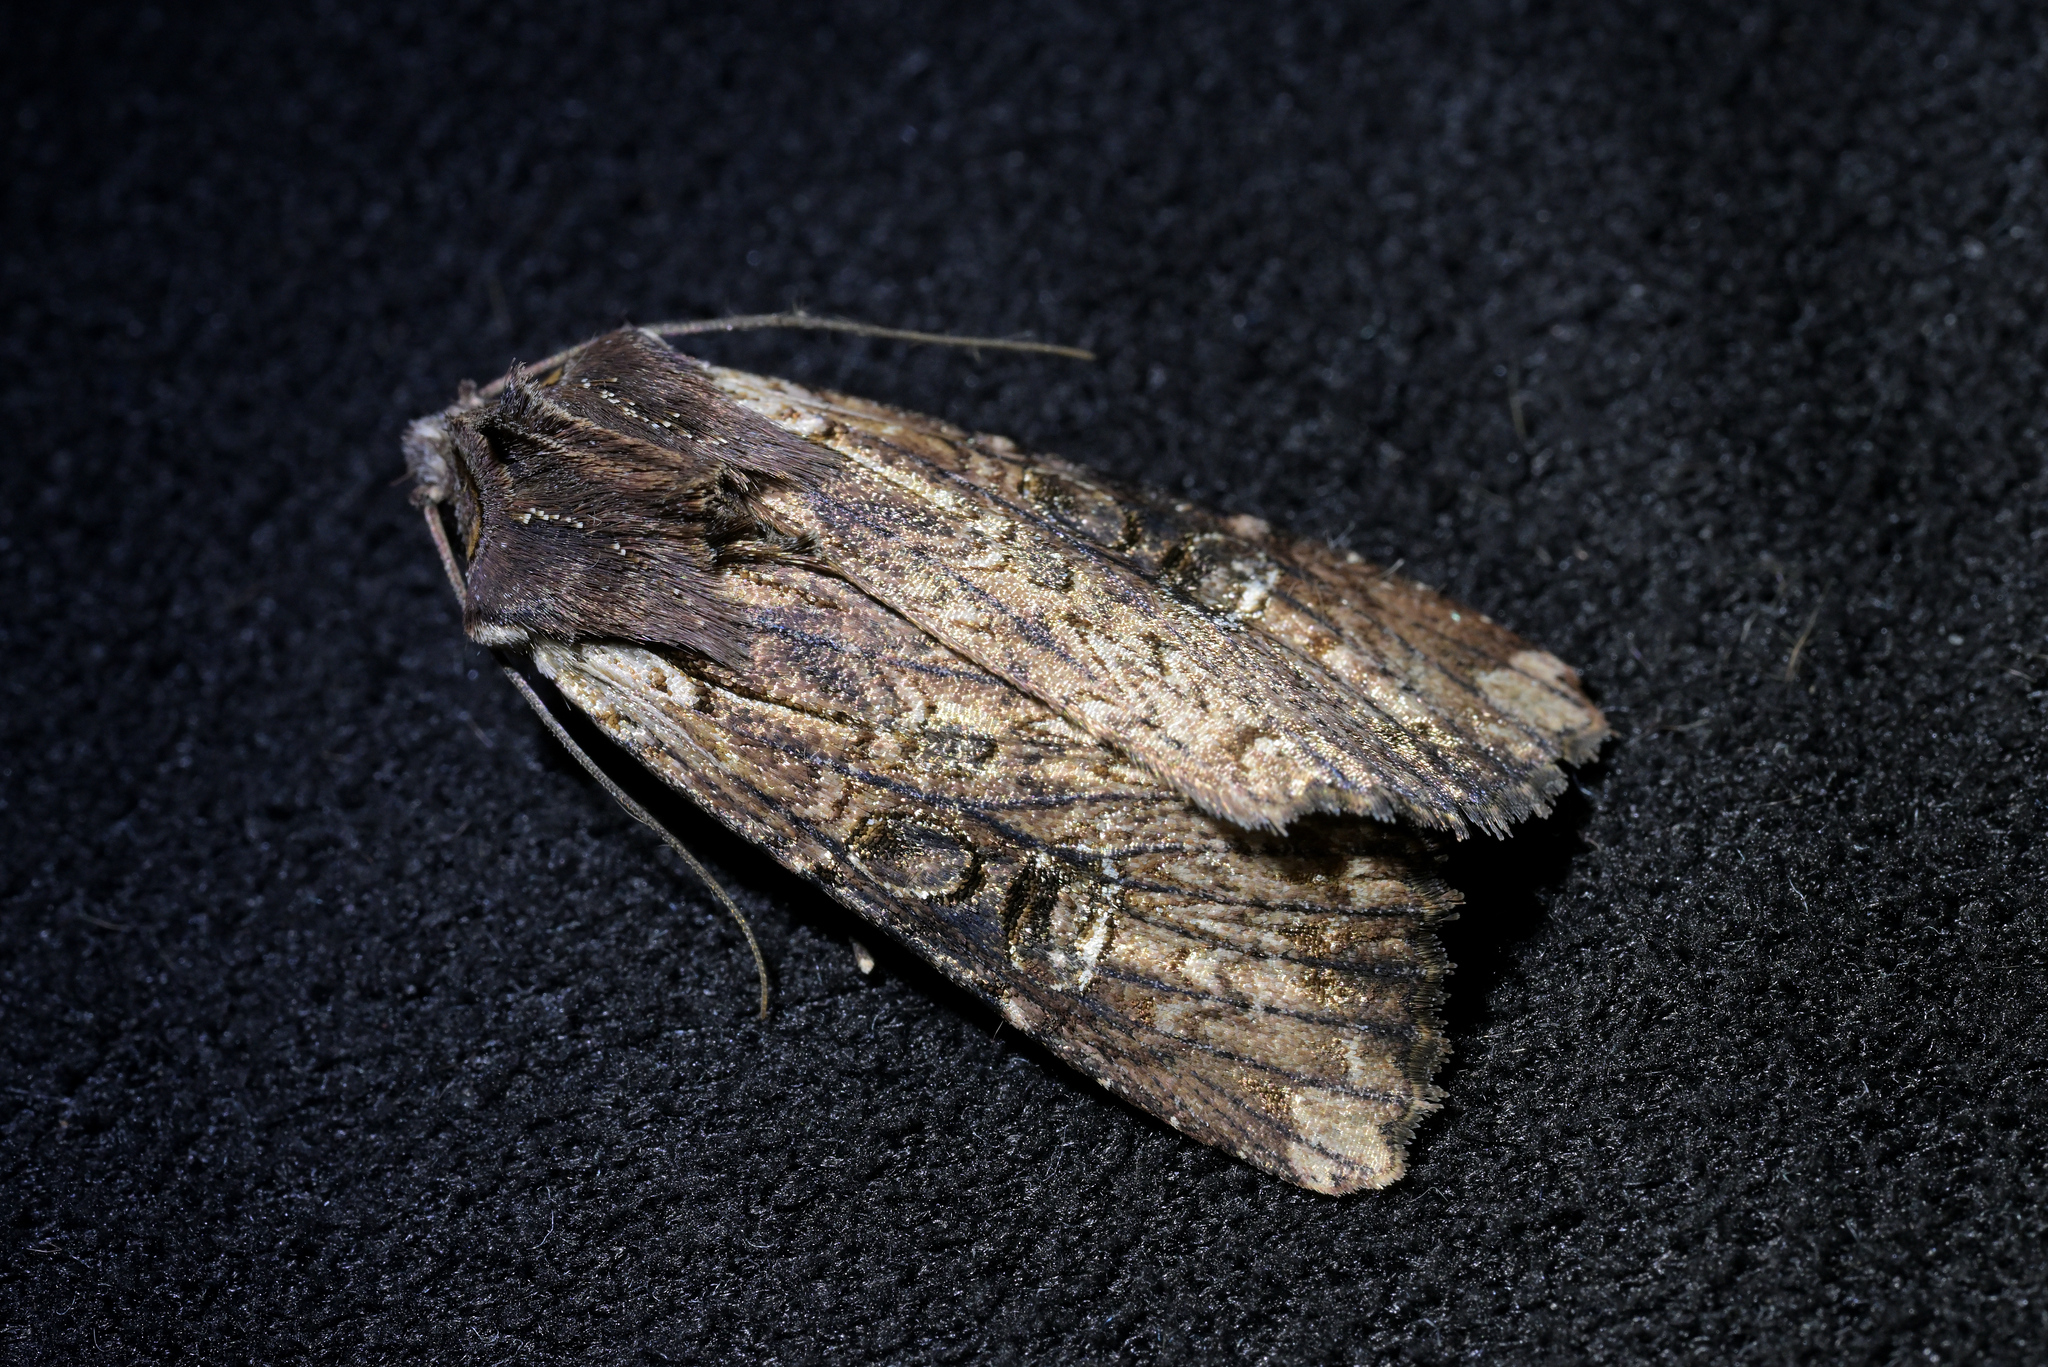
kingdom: Animalia
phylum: Arthropoda
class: Insecta
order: Lepidoptera
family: Noctuidae
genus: Ichneutica
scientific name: Ichneutica omoplaca
